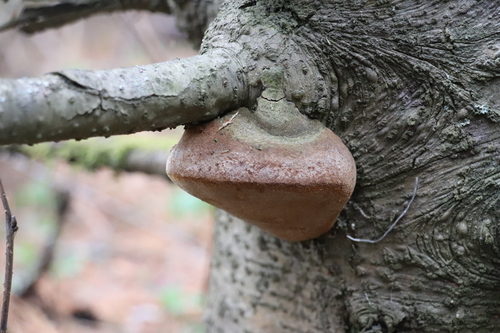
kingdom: Fungi
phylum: Basidiomycota
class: Agaricomycetes
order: Hymenochaetales
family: Hymenochaetaceae
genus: Phellinus
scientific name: Phellinus hartigii
